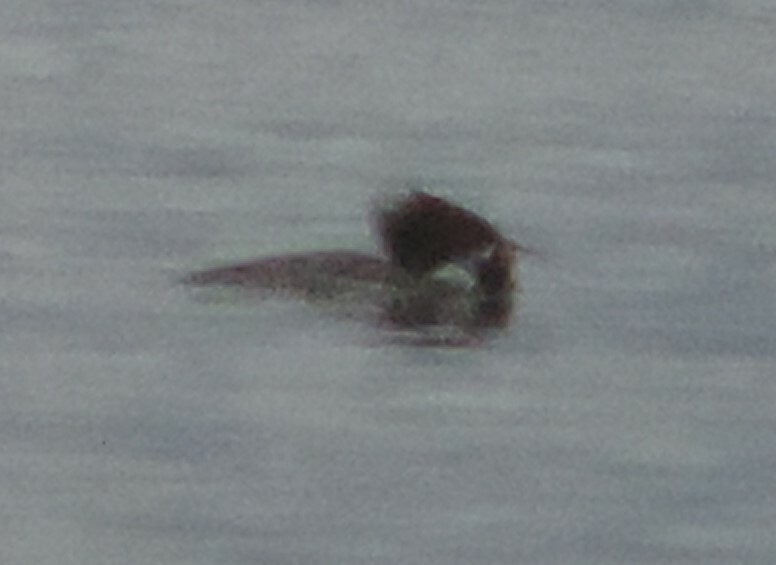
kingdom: Animalia
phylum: Chordata
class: Aves
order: Anseriformes
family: Anatidae
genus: Mergus
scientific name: Mergus merganser
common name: Common merganser
